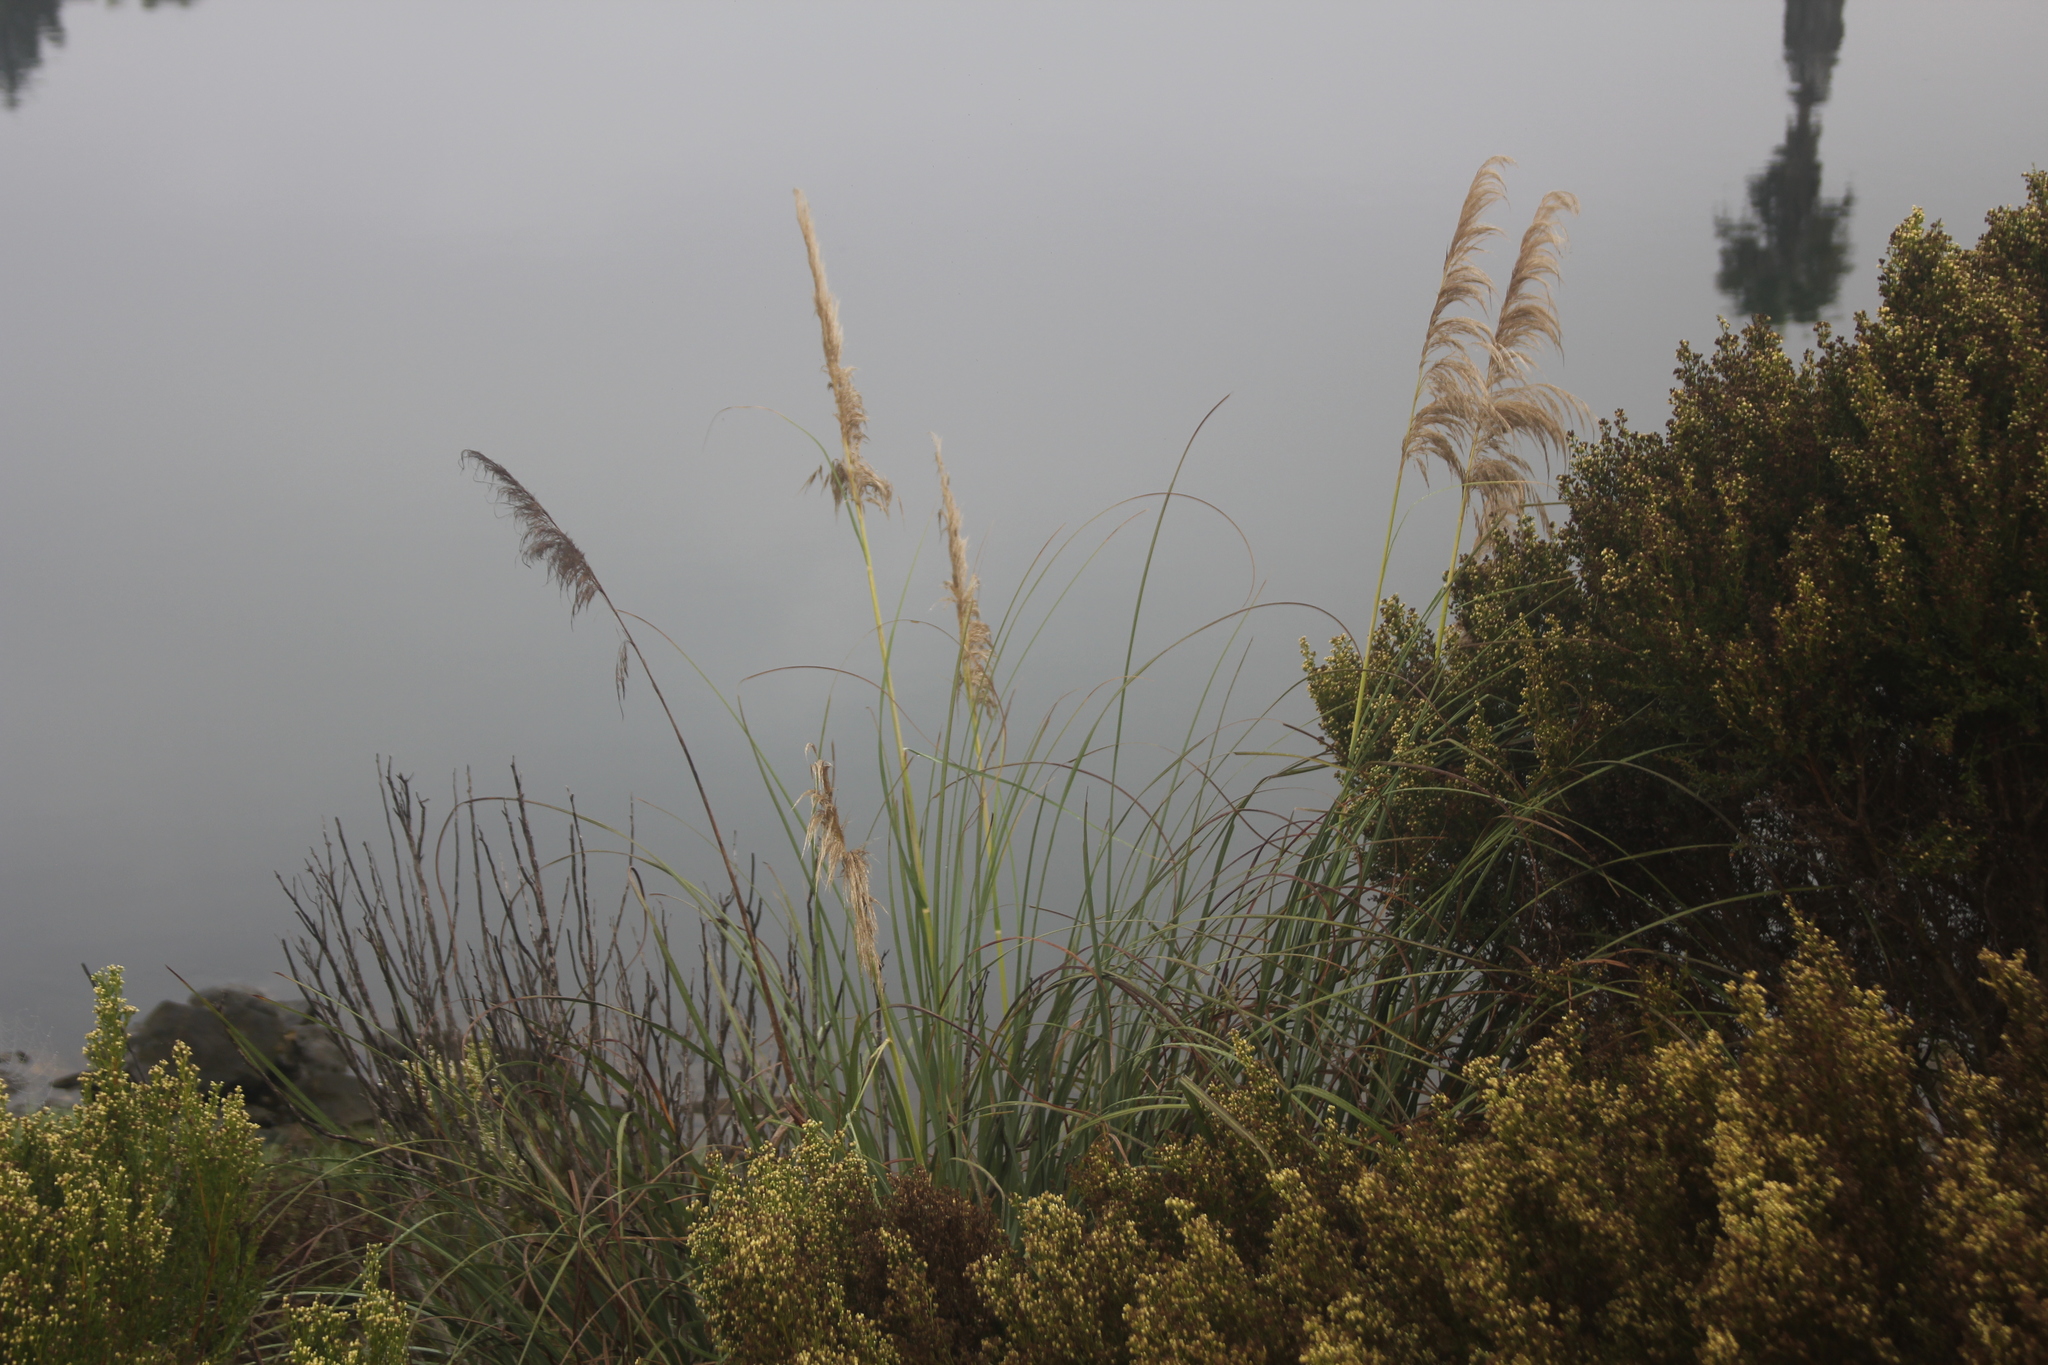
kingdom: Plantae
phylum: Tracheophyta
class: Liliopsida
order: Poales
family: Poaceae
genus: Cortaderia
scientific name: Cortaderia selloana
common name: Uruguayan pampas grass
